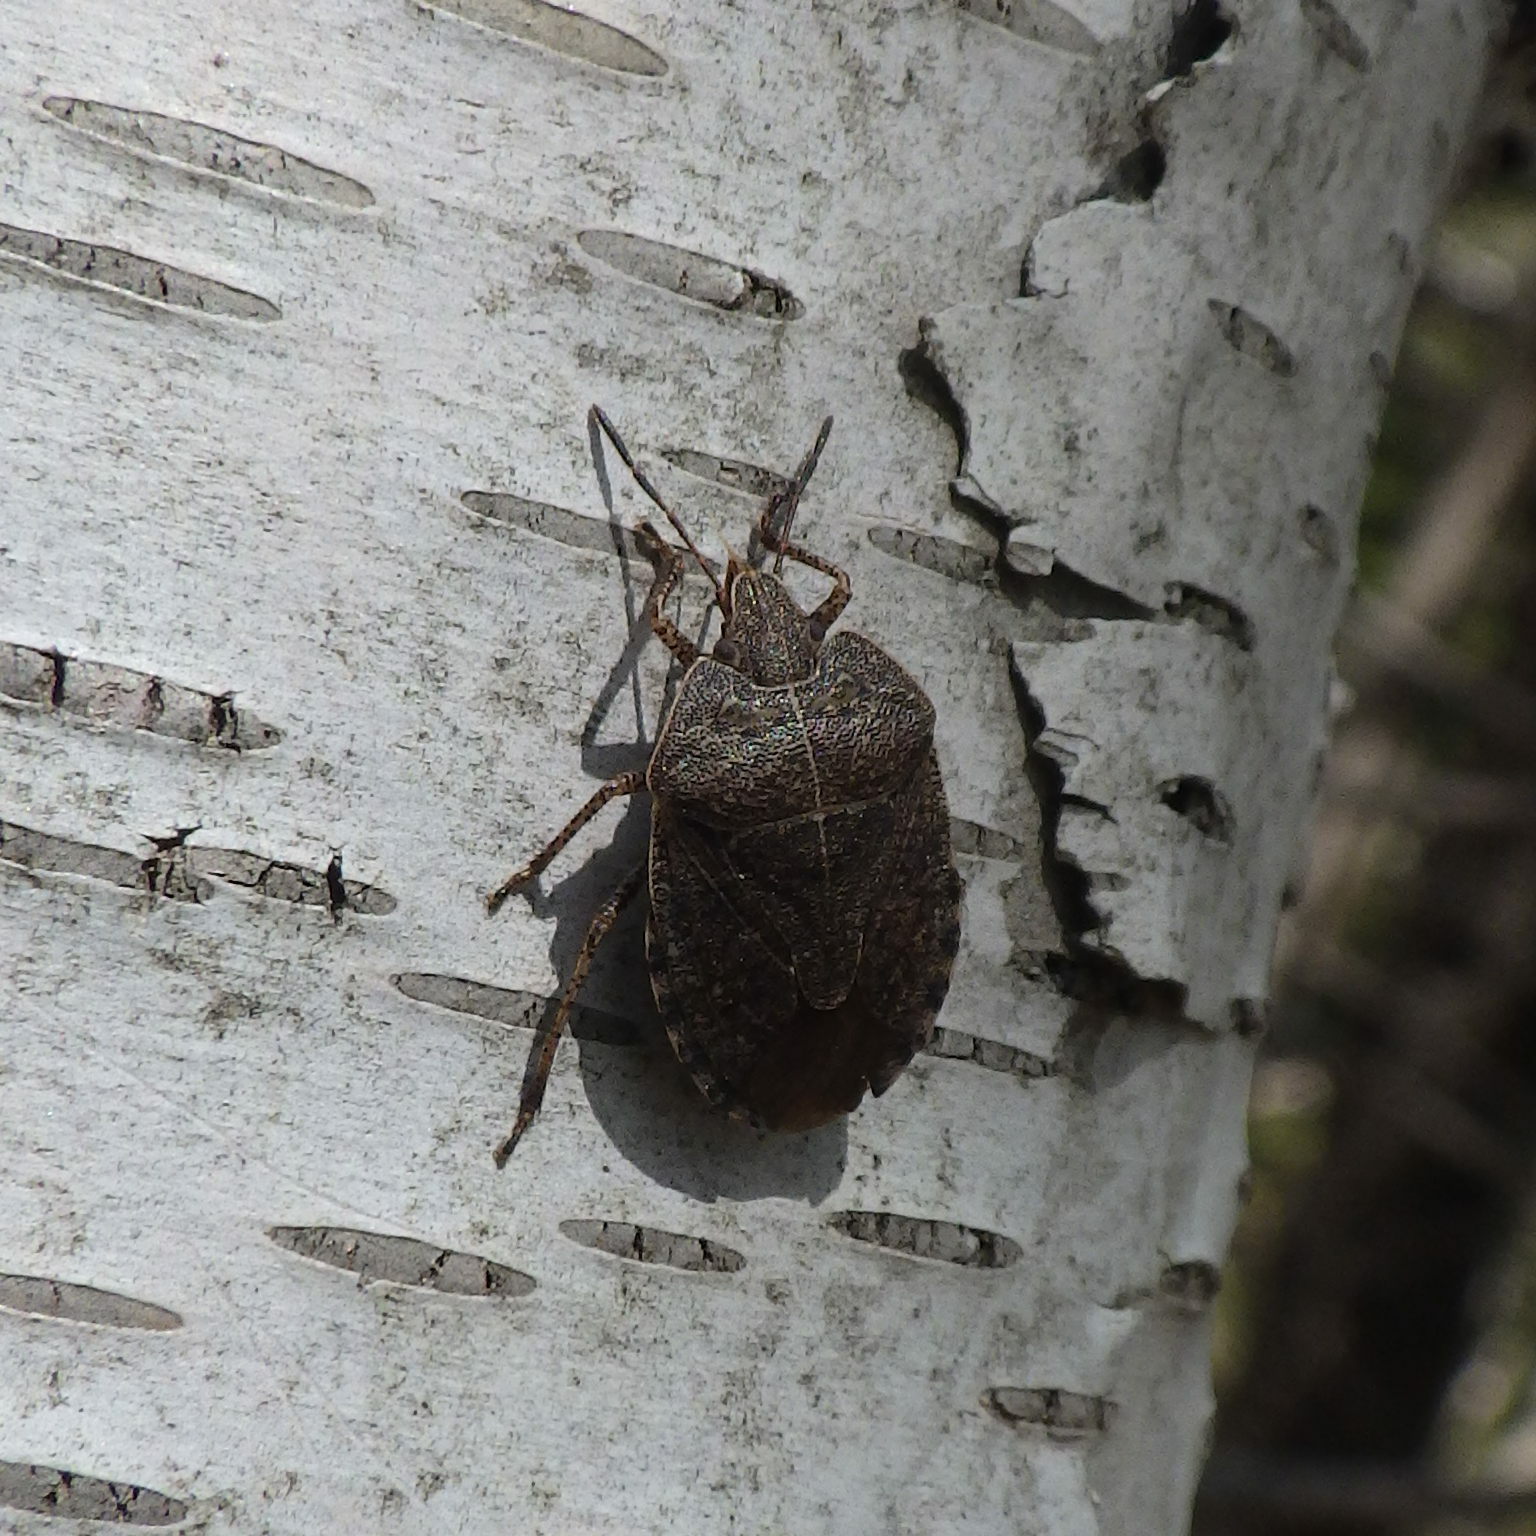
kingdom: Animalia
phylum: Arthropoda
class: Insecta
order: Hemiptera
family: Pentatomidae
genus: Menecles
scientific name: Menecles insertus
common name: Elf shoe stink bug
